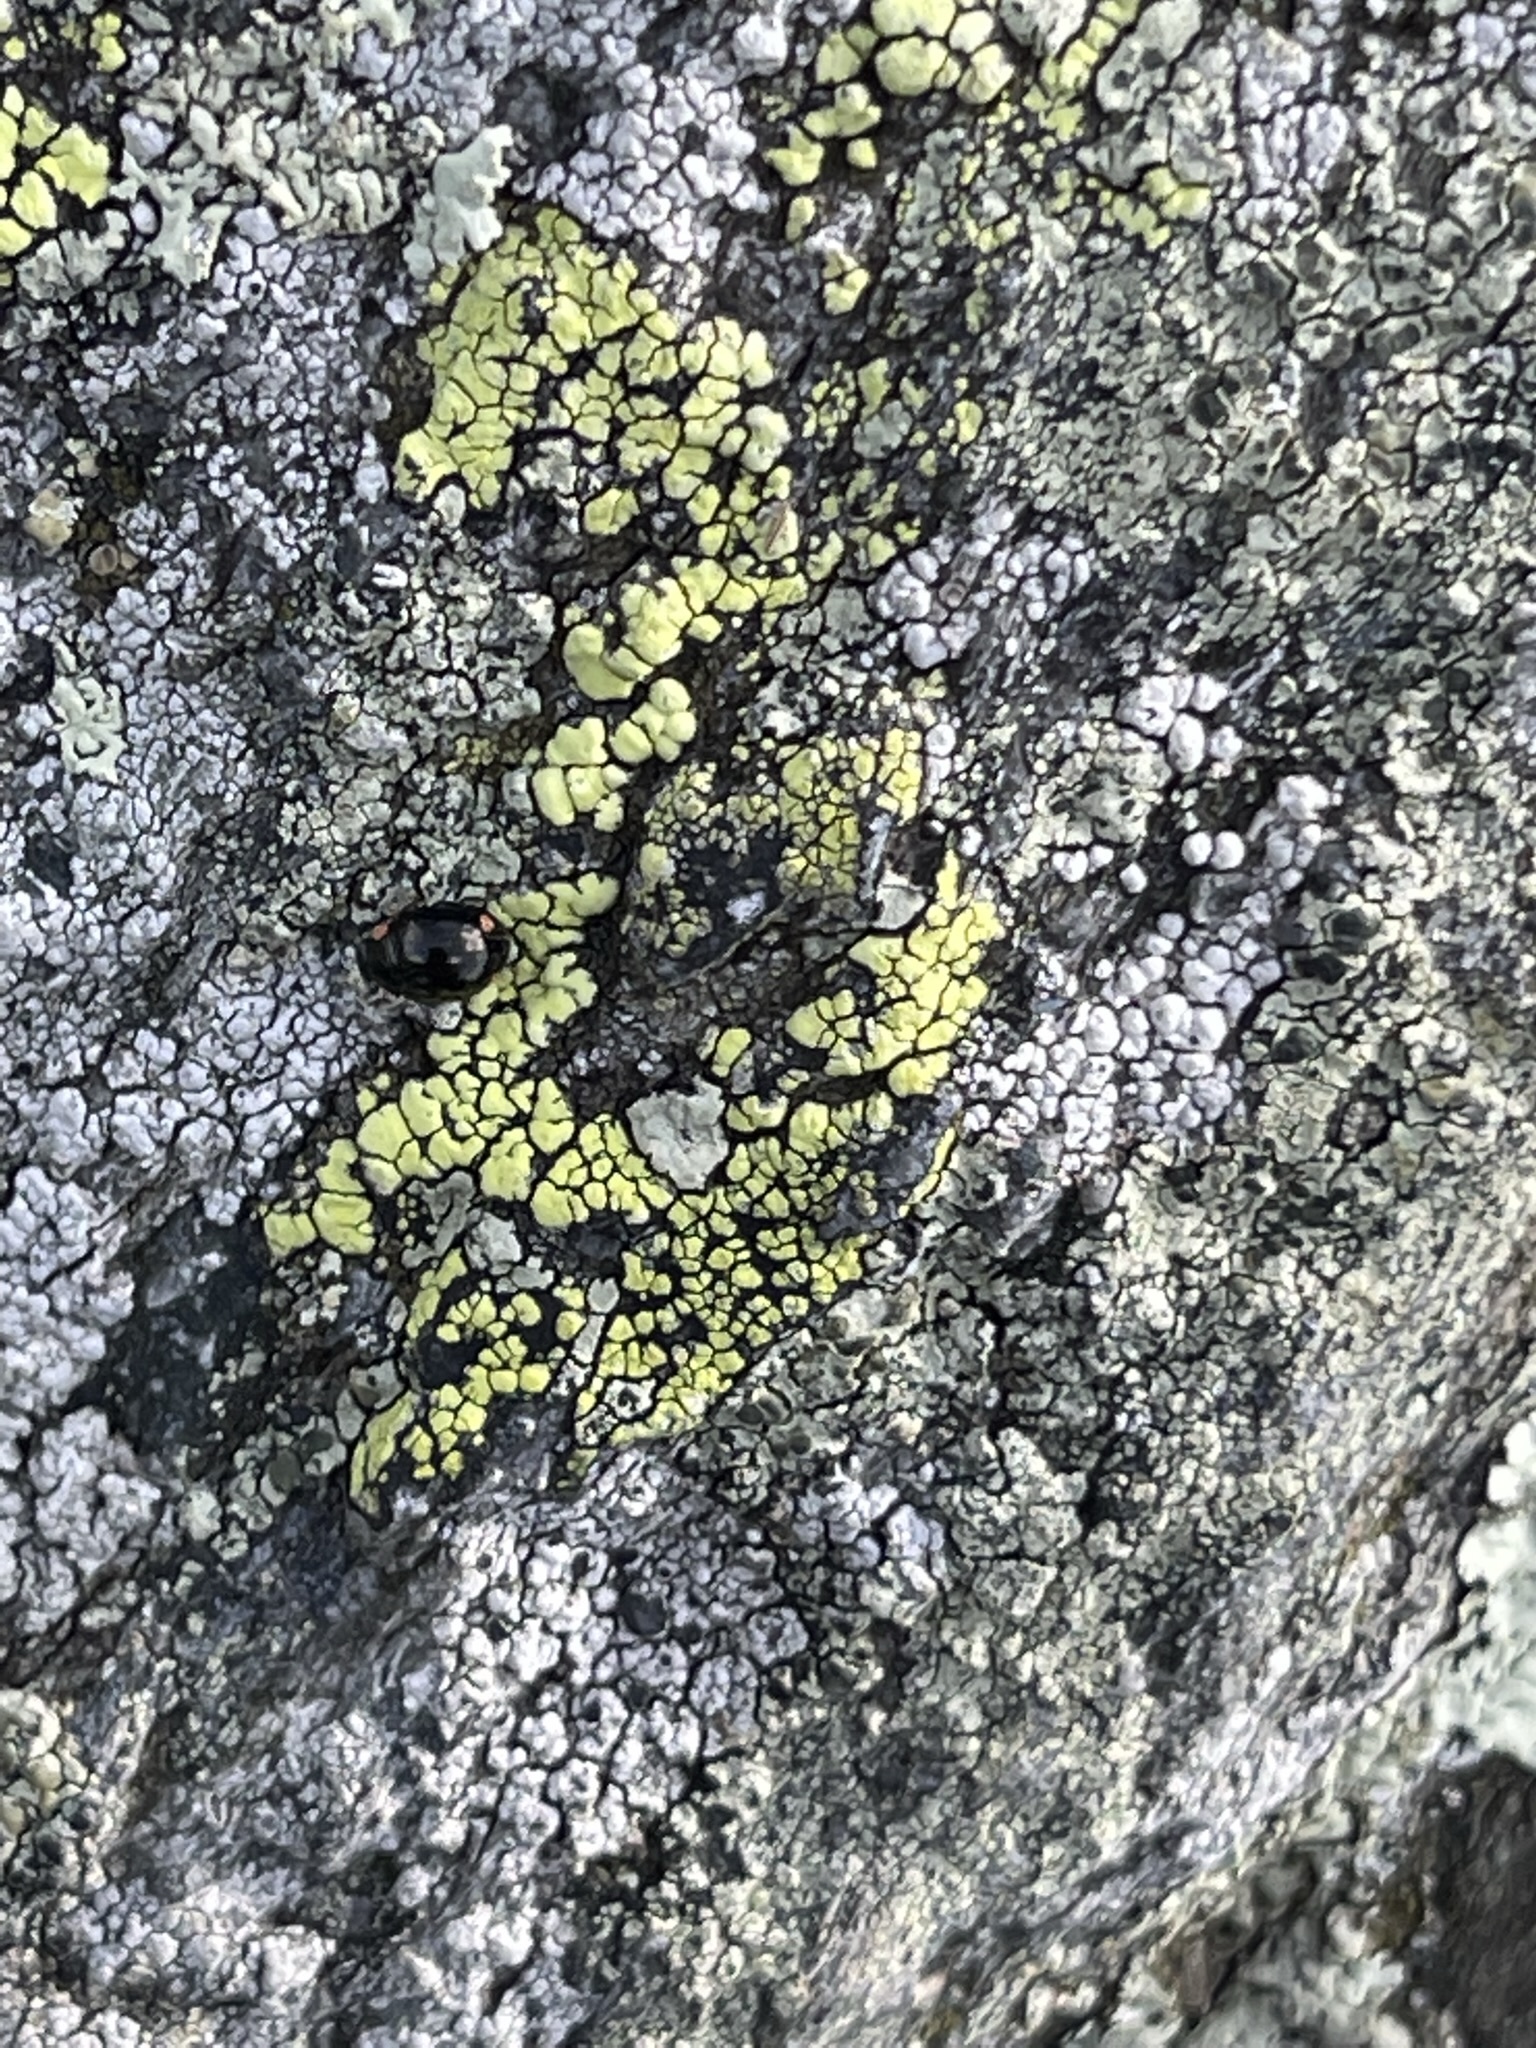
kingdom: Animalia
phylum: Arthropoda
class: Insecta
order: Coleoptera
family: Coccinellidae
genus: Hyperaspis
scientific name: Hyperaspis bigeminata
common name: Bigeminate sigil lady beetle
